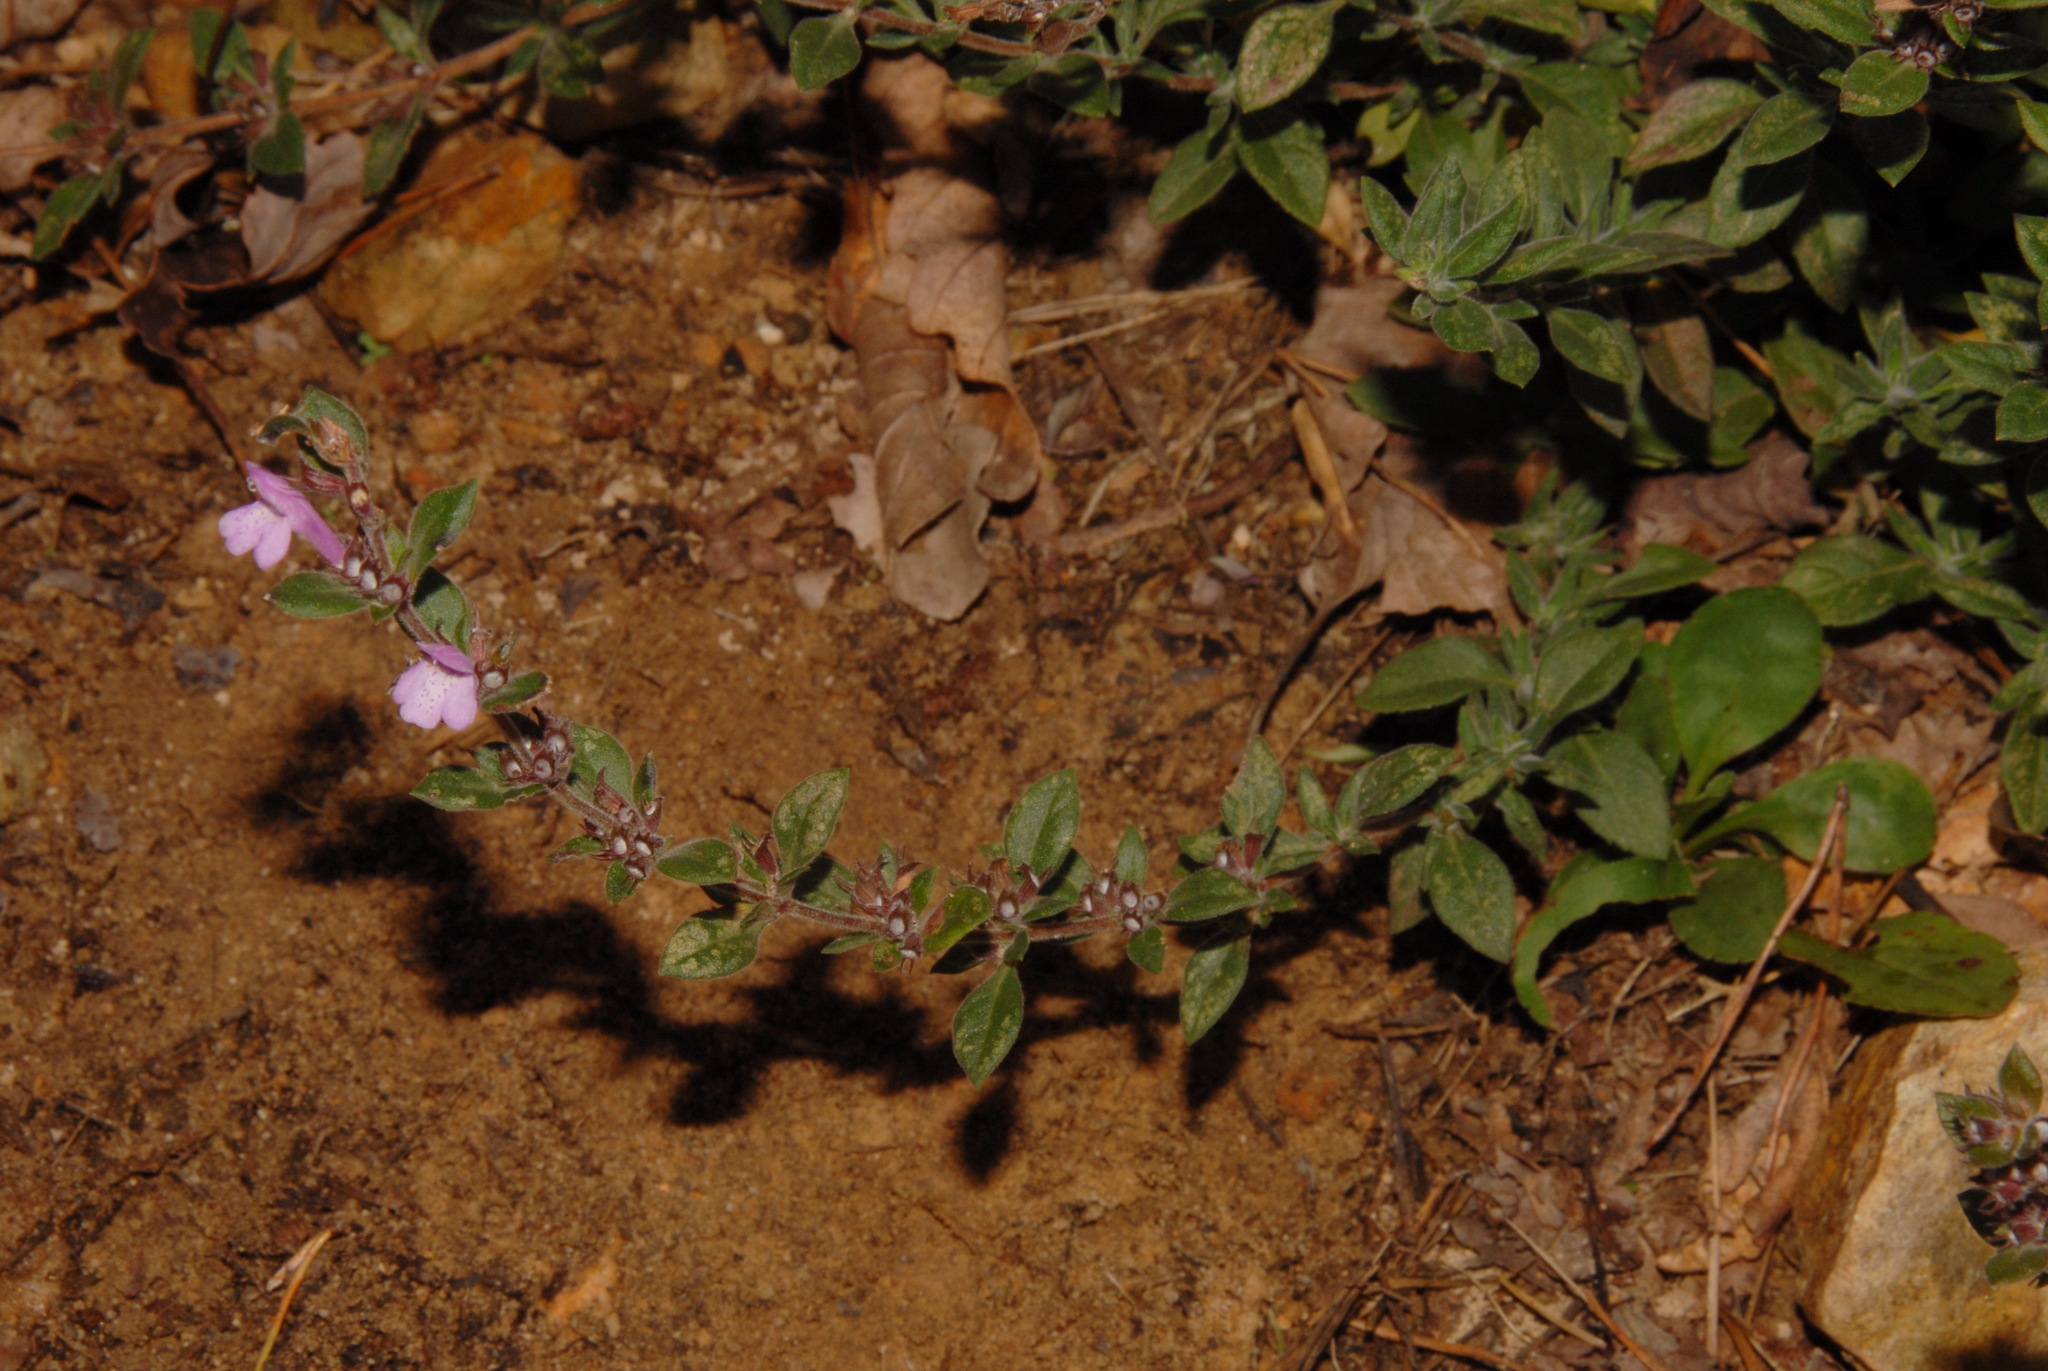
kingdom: Plantae
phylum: Tracheophyta
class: Magnoliopsida
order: Lamiales
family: Lamiaceae
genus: Clinopodium
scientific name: Clinopodium talladeganum
